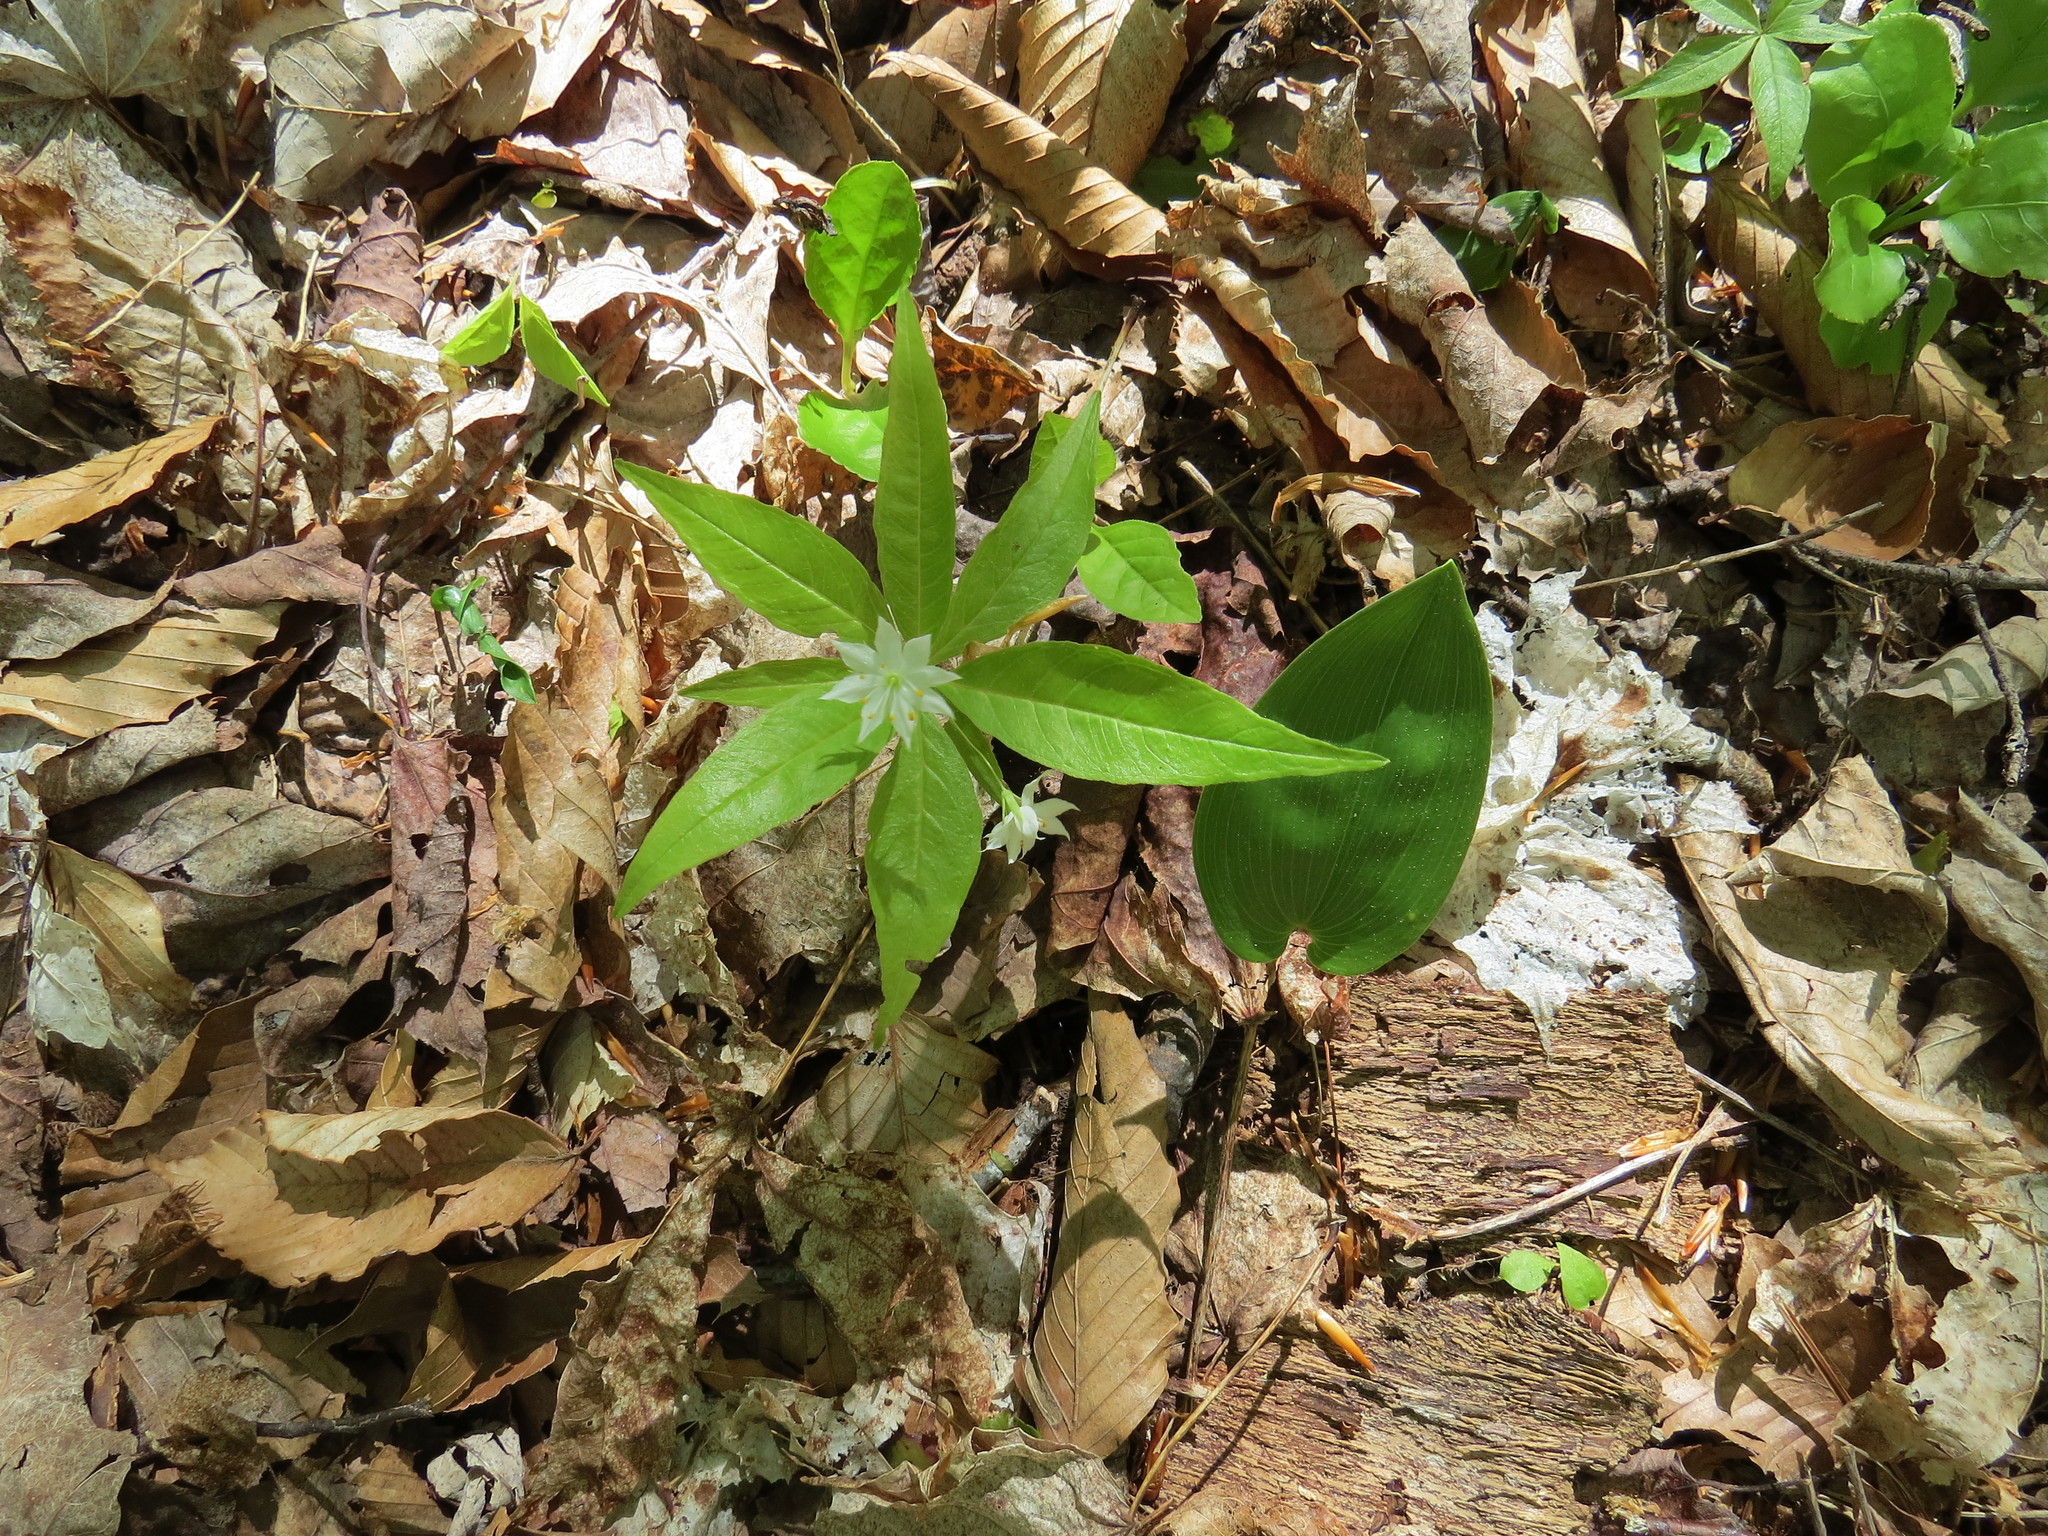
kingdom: Plantae
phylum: Tracheophyta
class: Magnoliopsida
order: Ericales
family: Primulaceae
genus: Lysimachia
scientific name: Lysimachia borealis
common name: American starflower
